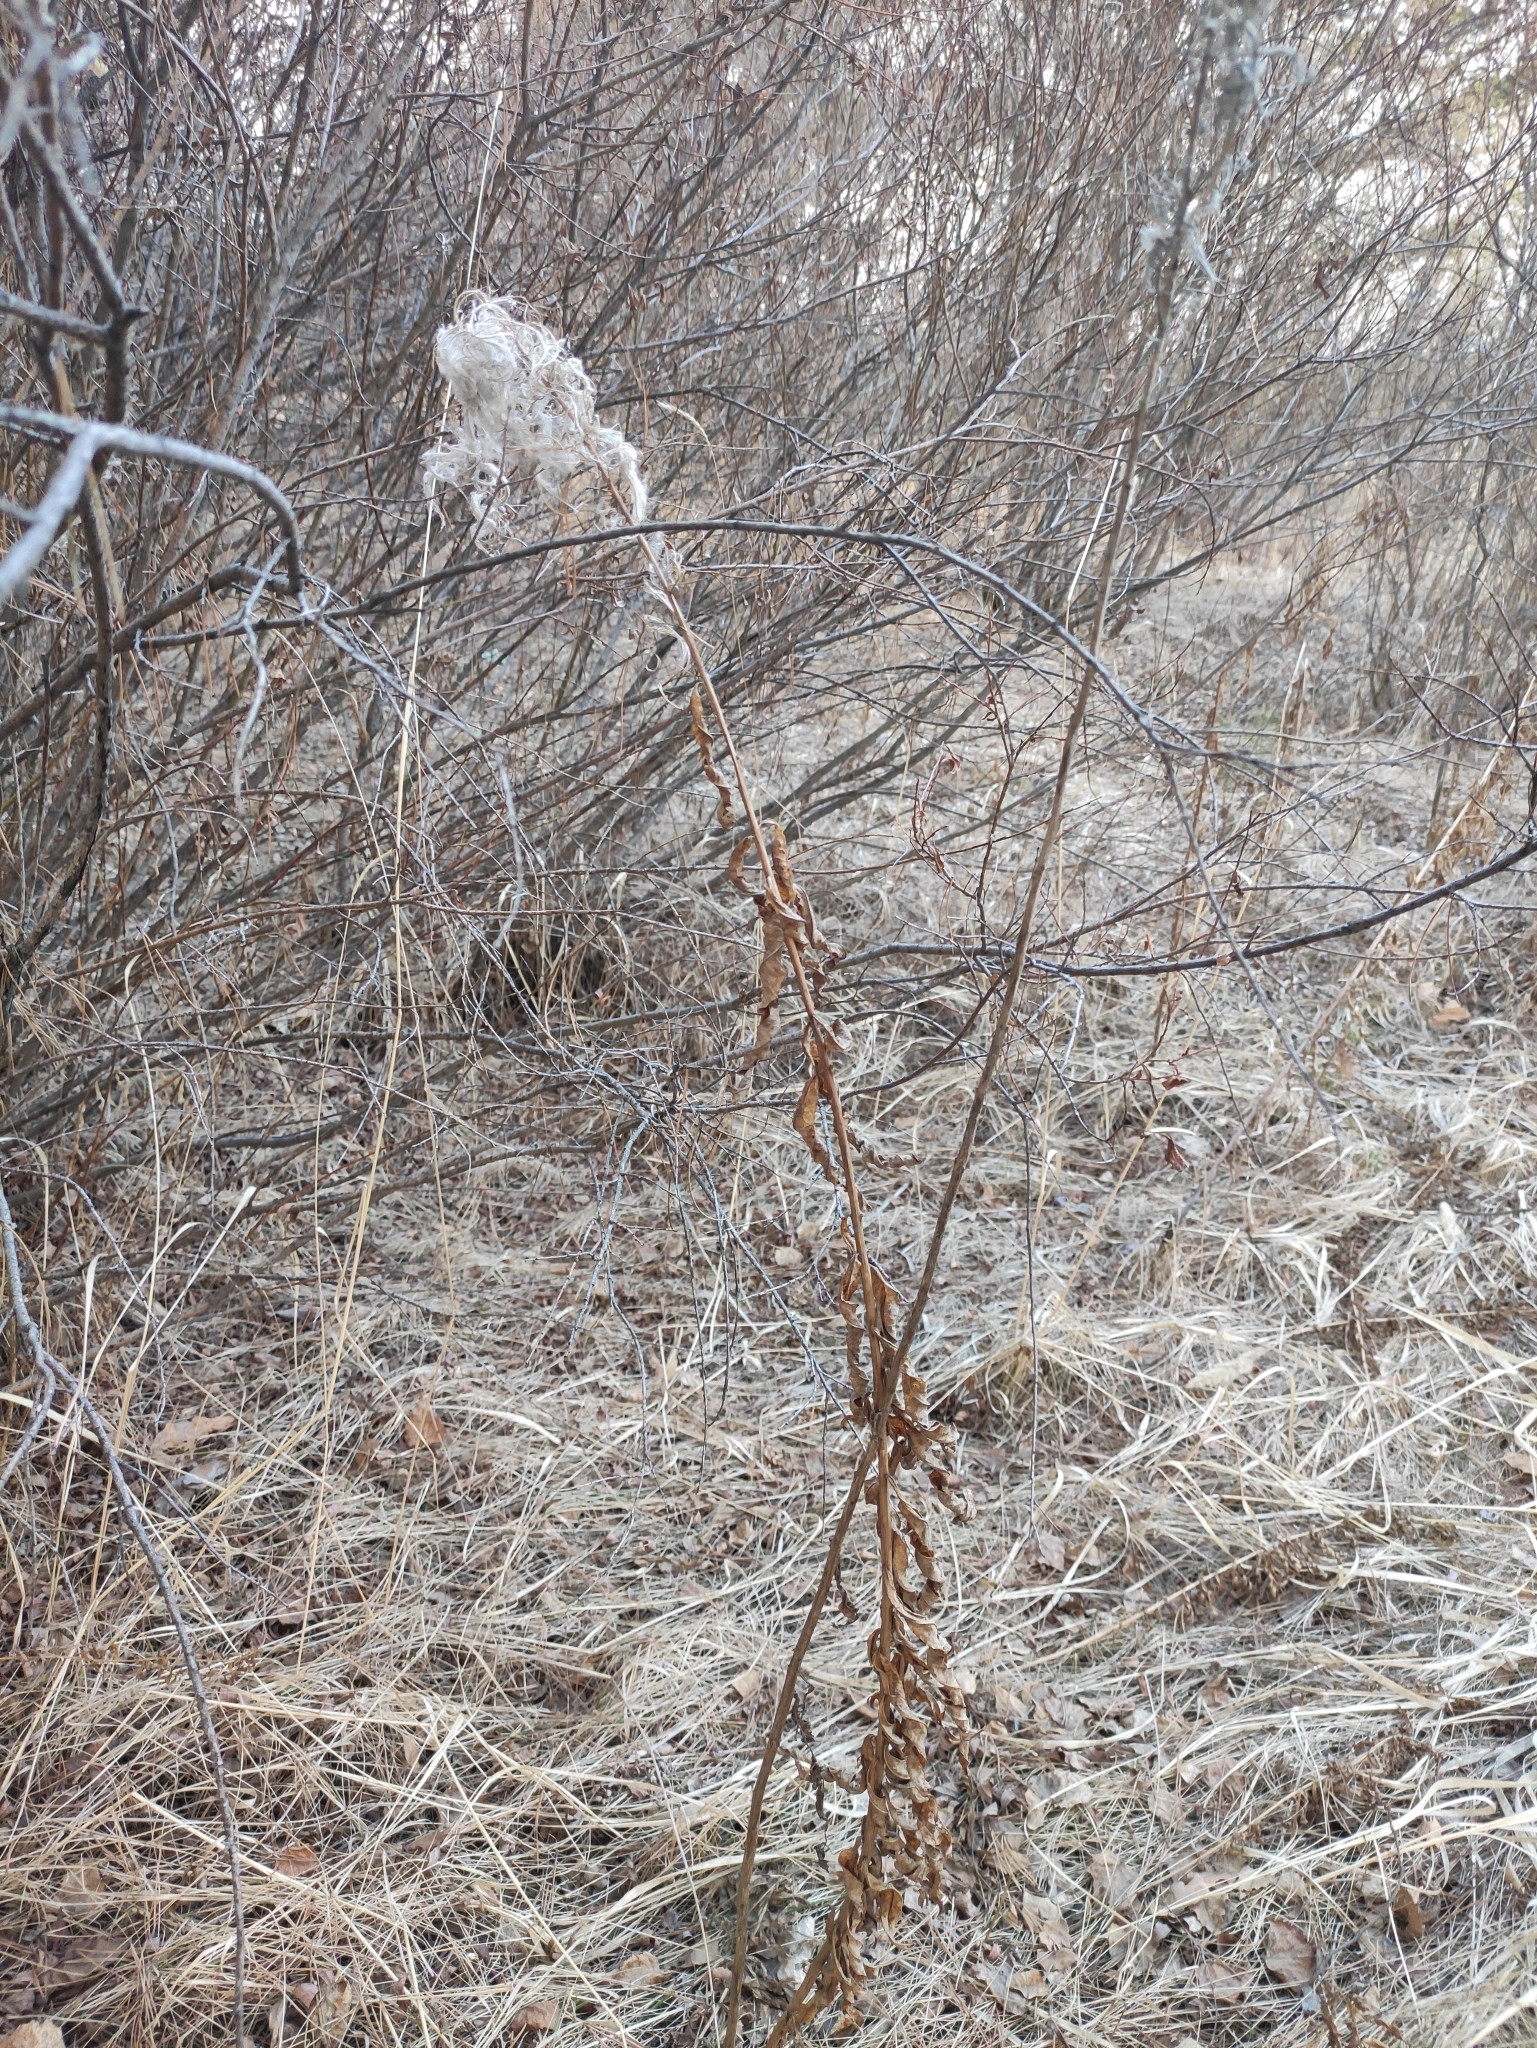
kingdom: Plantae
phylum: Tracheophyta
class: Magnoliopsida
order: Myrtales
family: Onagraceae
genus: Chamaenerion
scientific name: Chamaenerion angustifolium
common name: Fireweed
